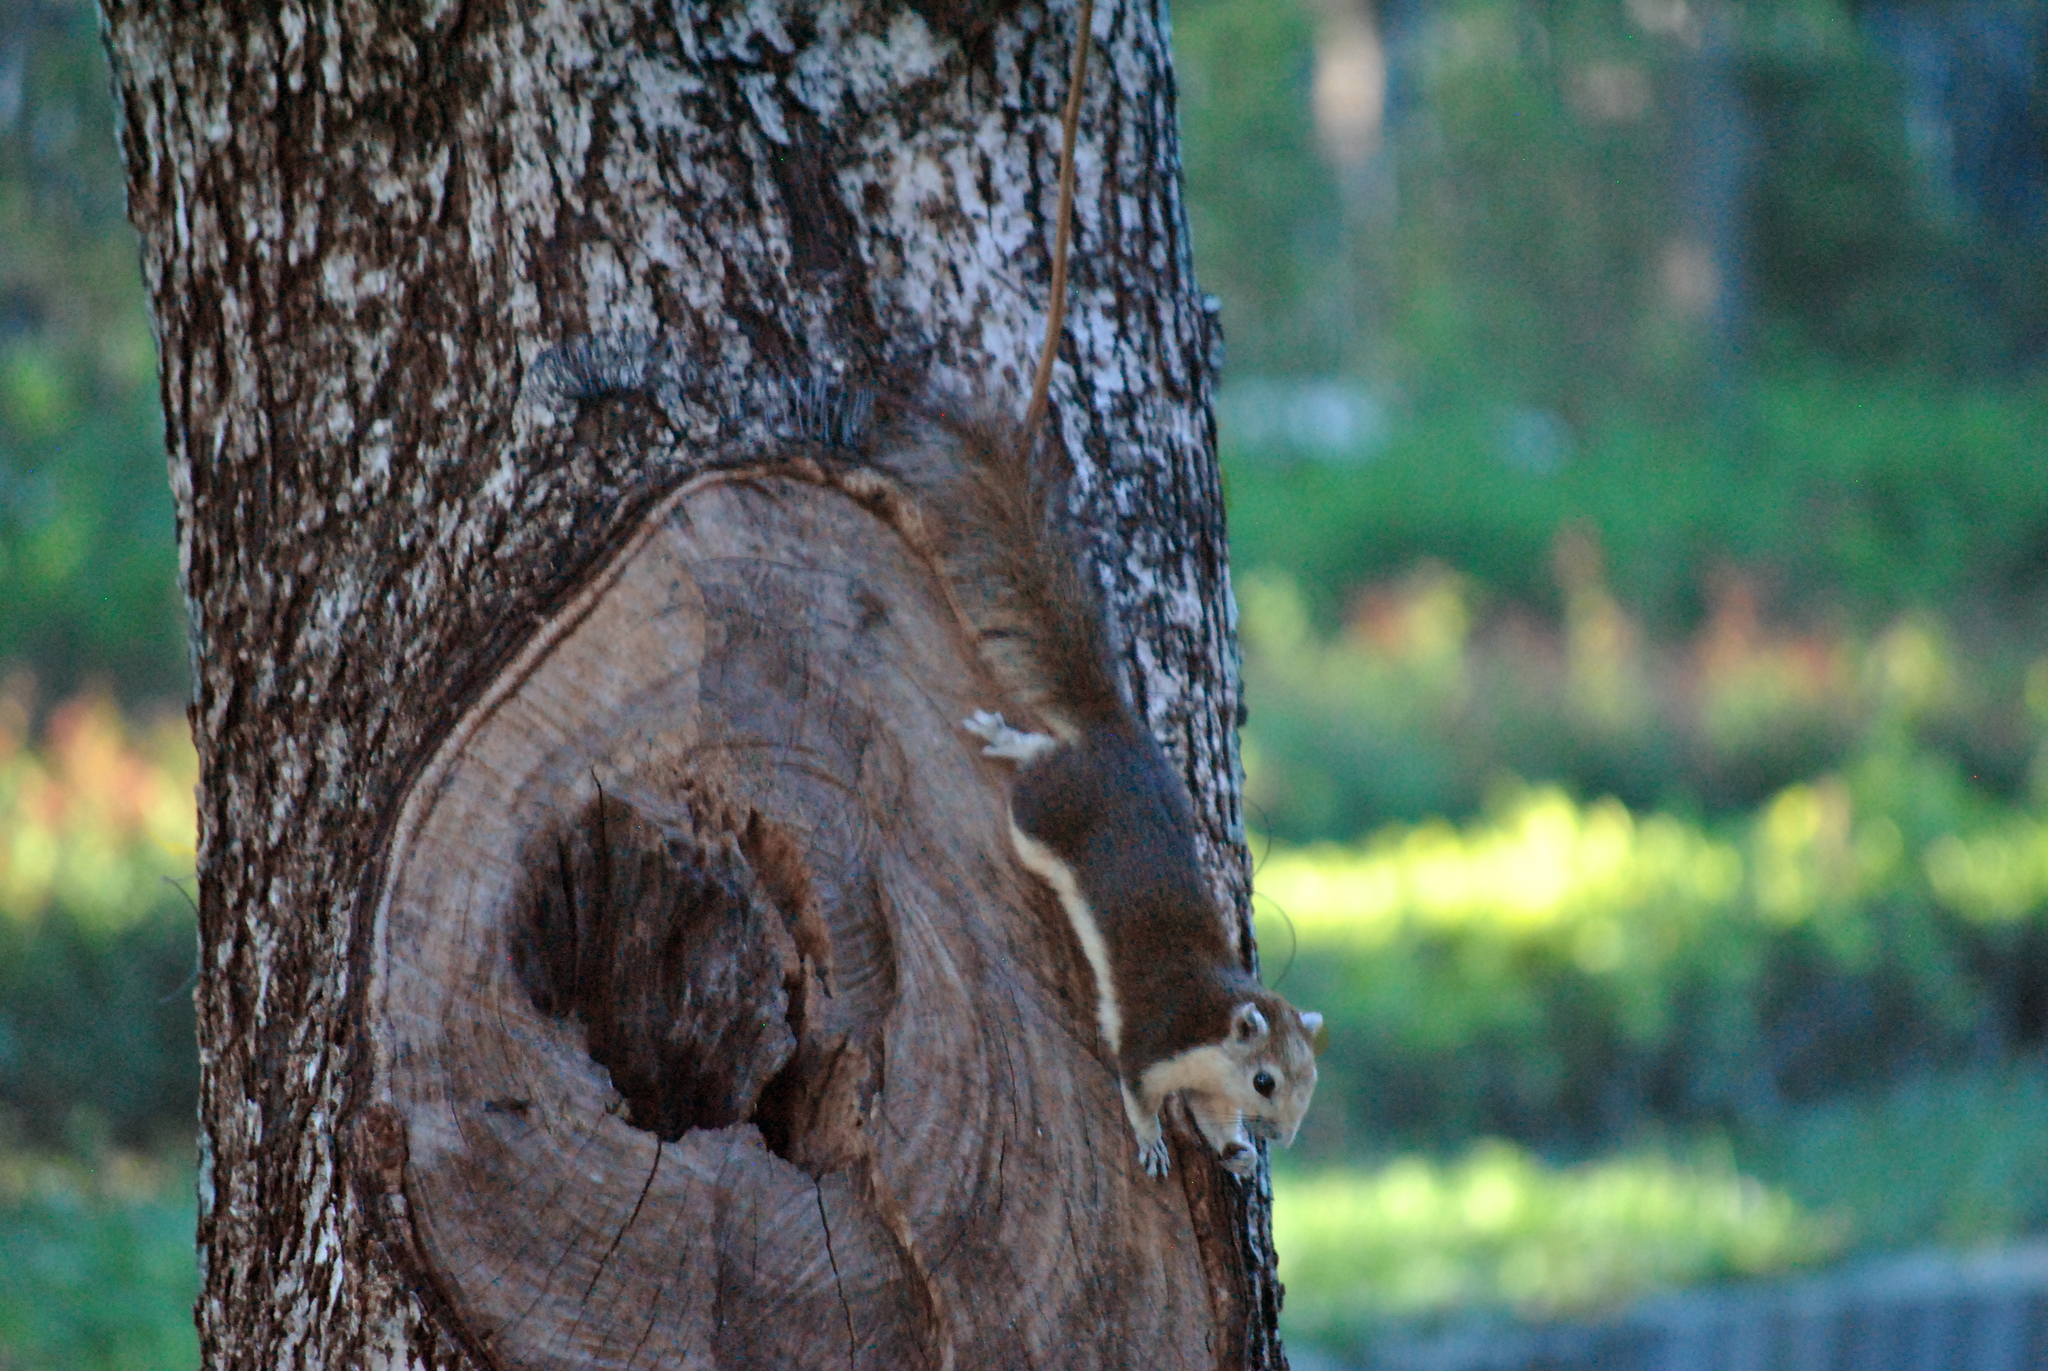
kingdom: Animalia
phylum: Chordata
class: Mammalia
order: Rodentia
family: Sciuridae
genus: Callosciurus
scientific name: Callosciurus finlaysonii
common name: Finlayson's squirrel
